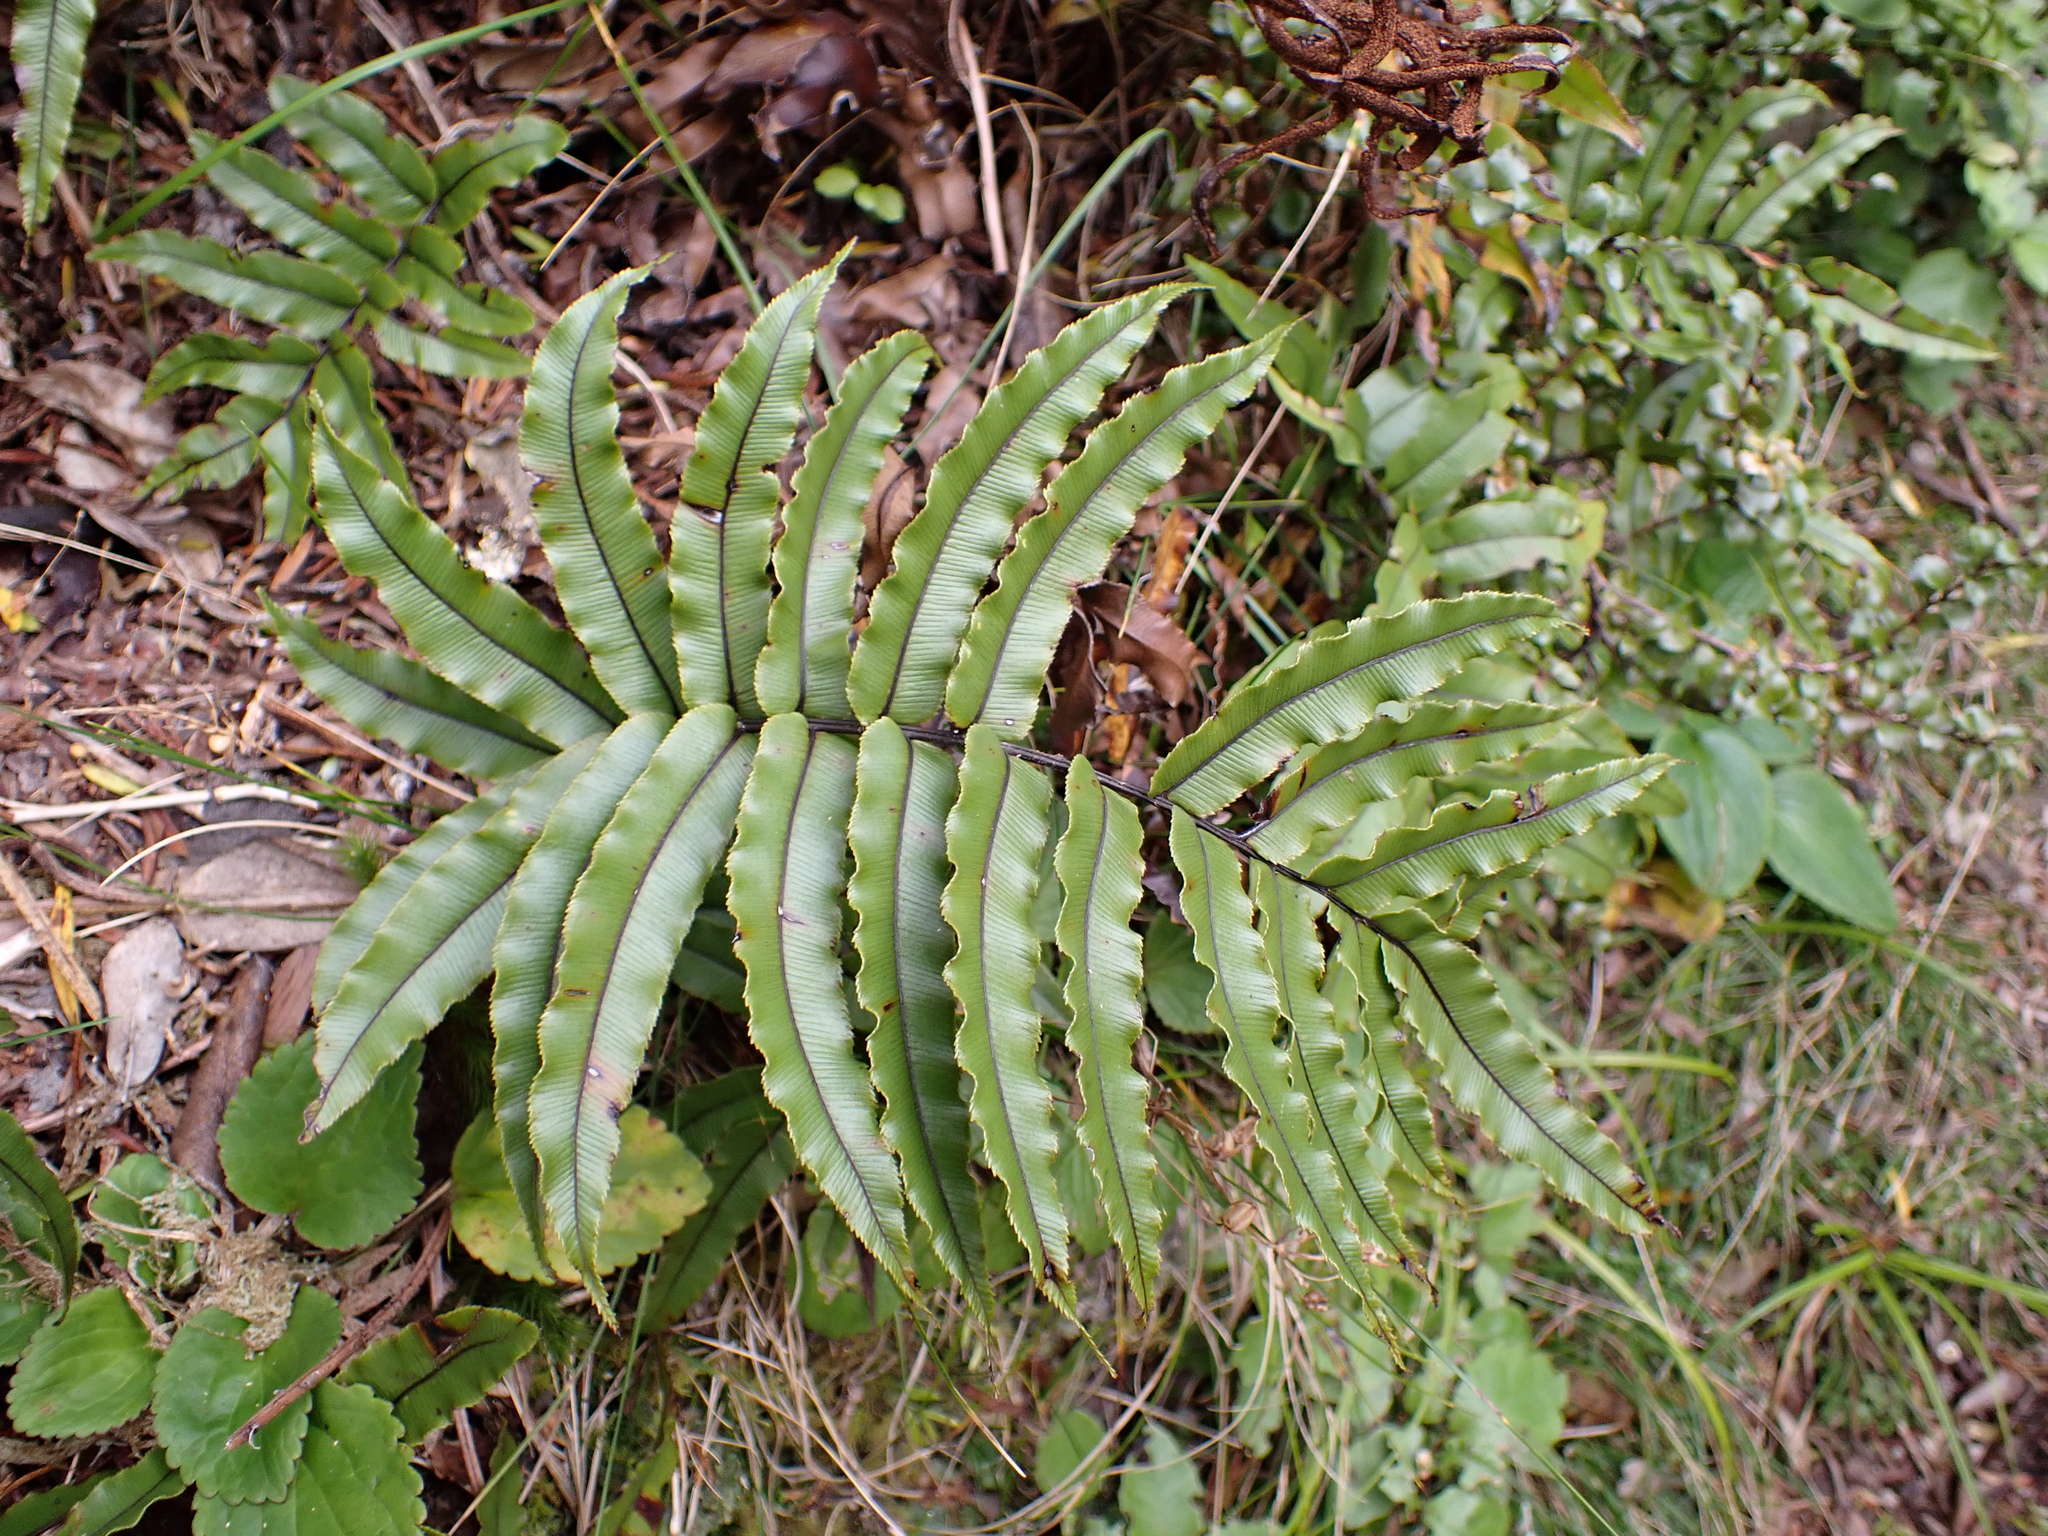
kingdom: Plantae
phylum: Tracheophyta
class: Polypodiopsida
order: Polypodiales
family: Blechnaceae
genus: Parablechnum
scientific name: Parablechnum montanum
